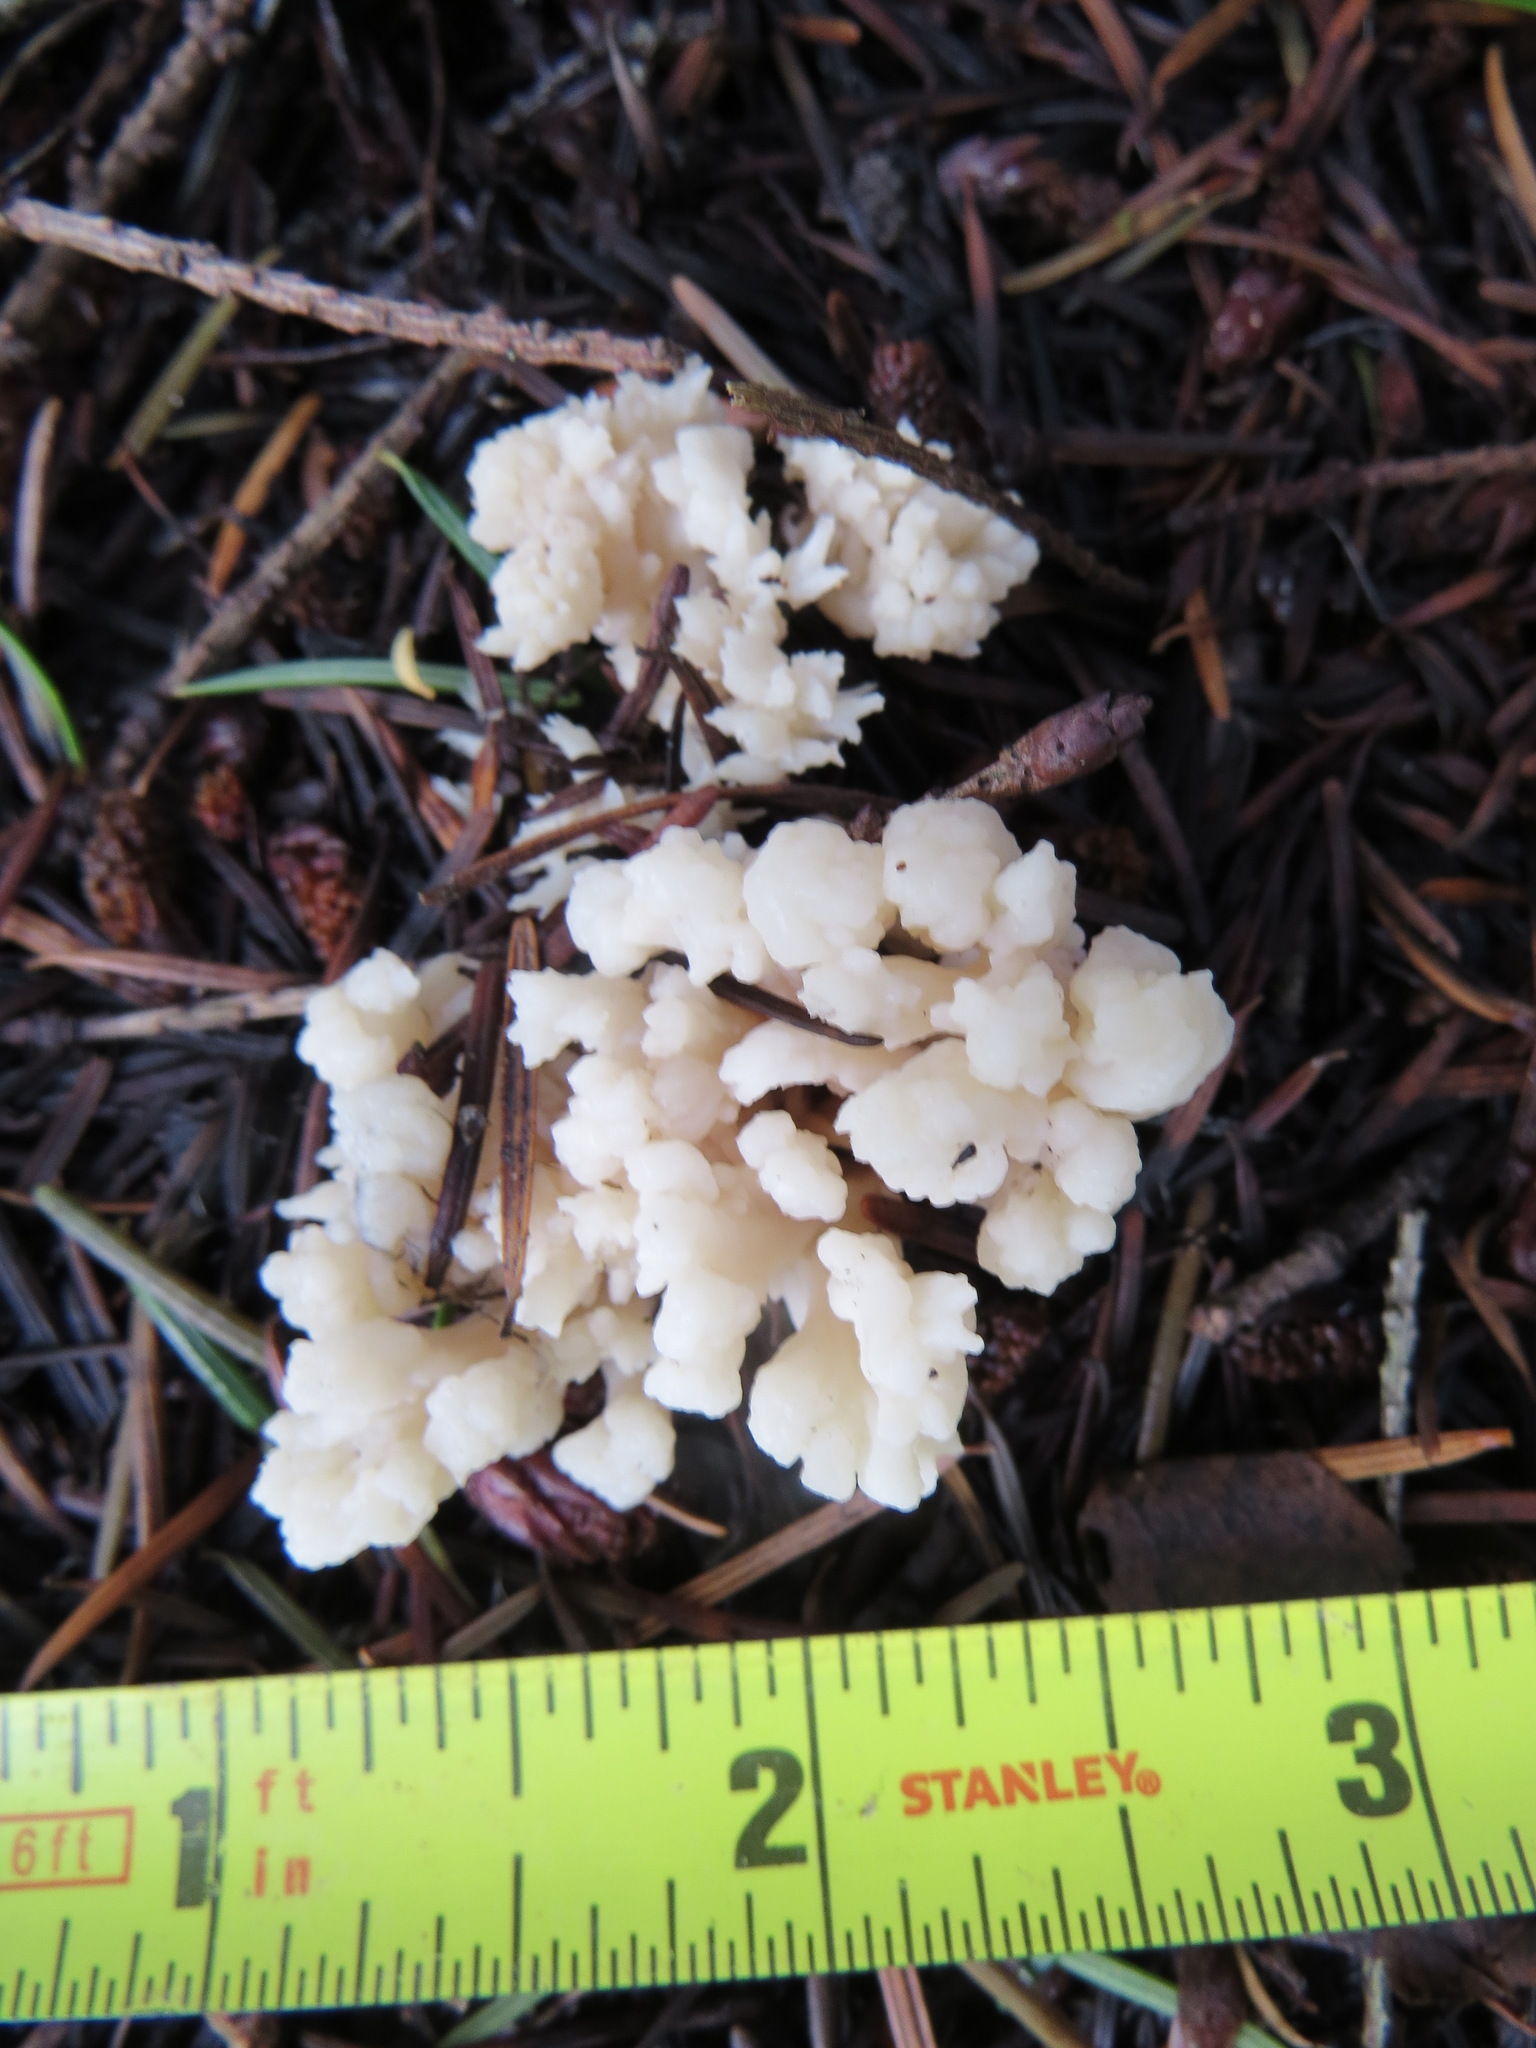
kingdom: Fungi
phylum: Basidiomycota
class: Agaricomycetes
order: Cantharellales
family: Hydnaceae
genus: Clavulina
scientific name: Clavulina rugosa
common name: Wrinkled club
